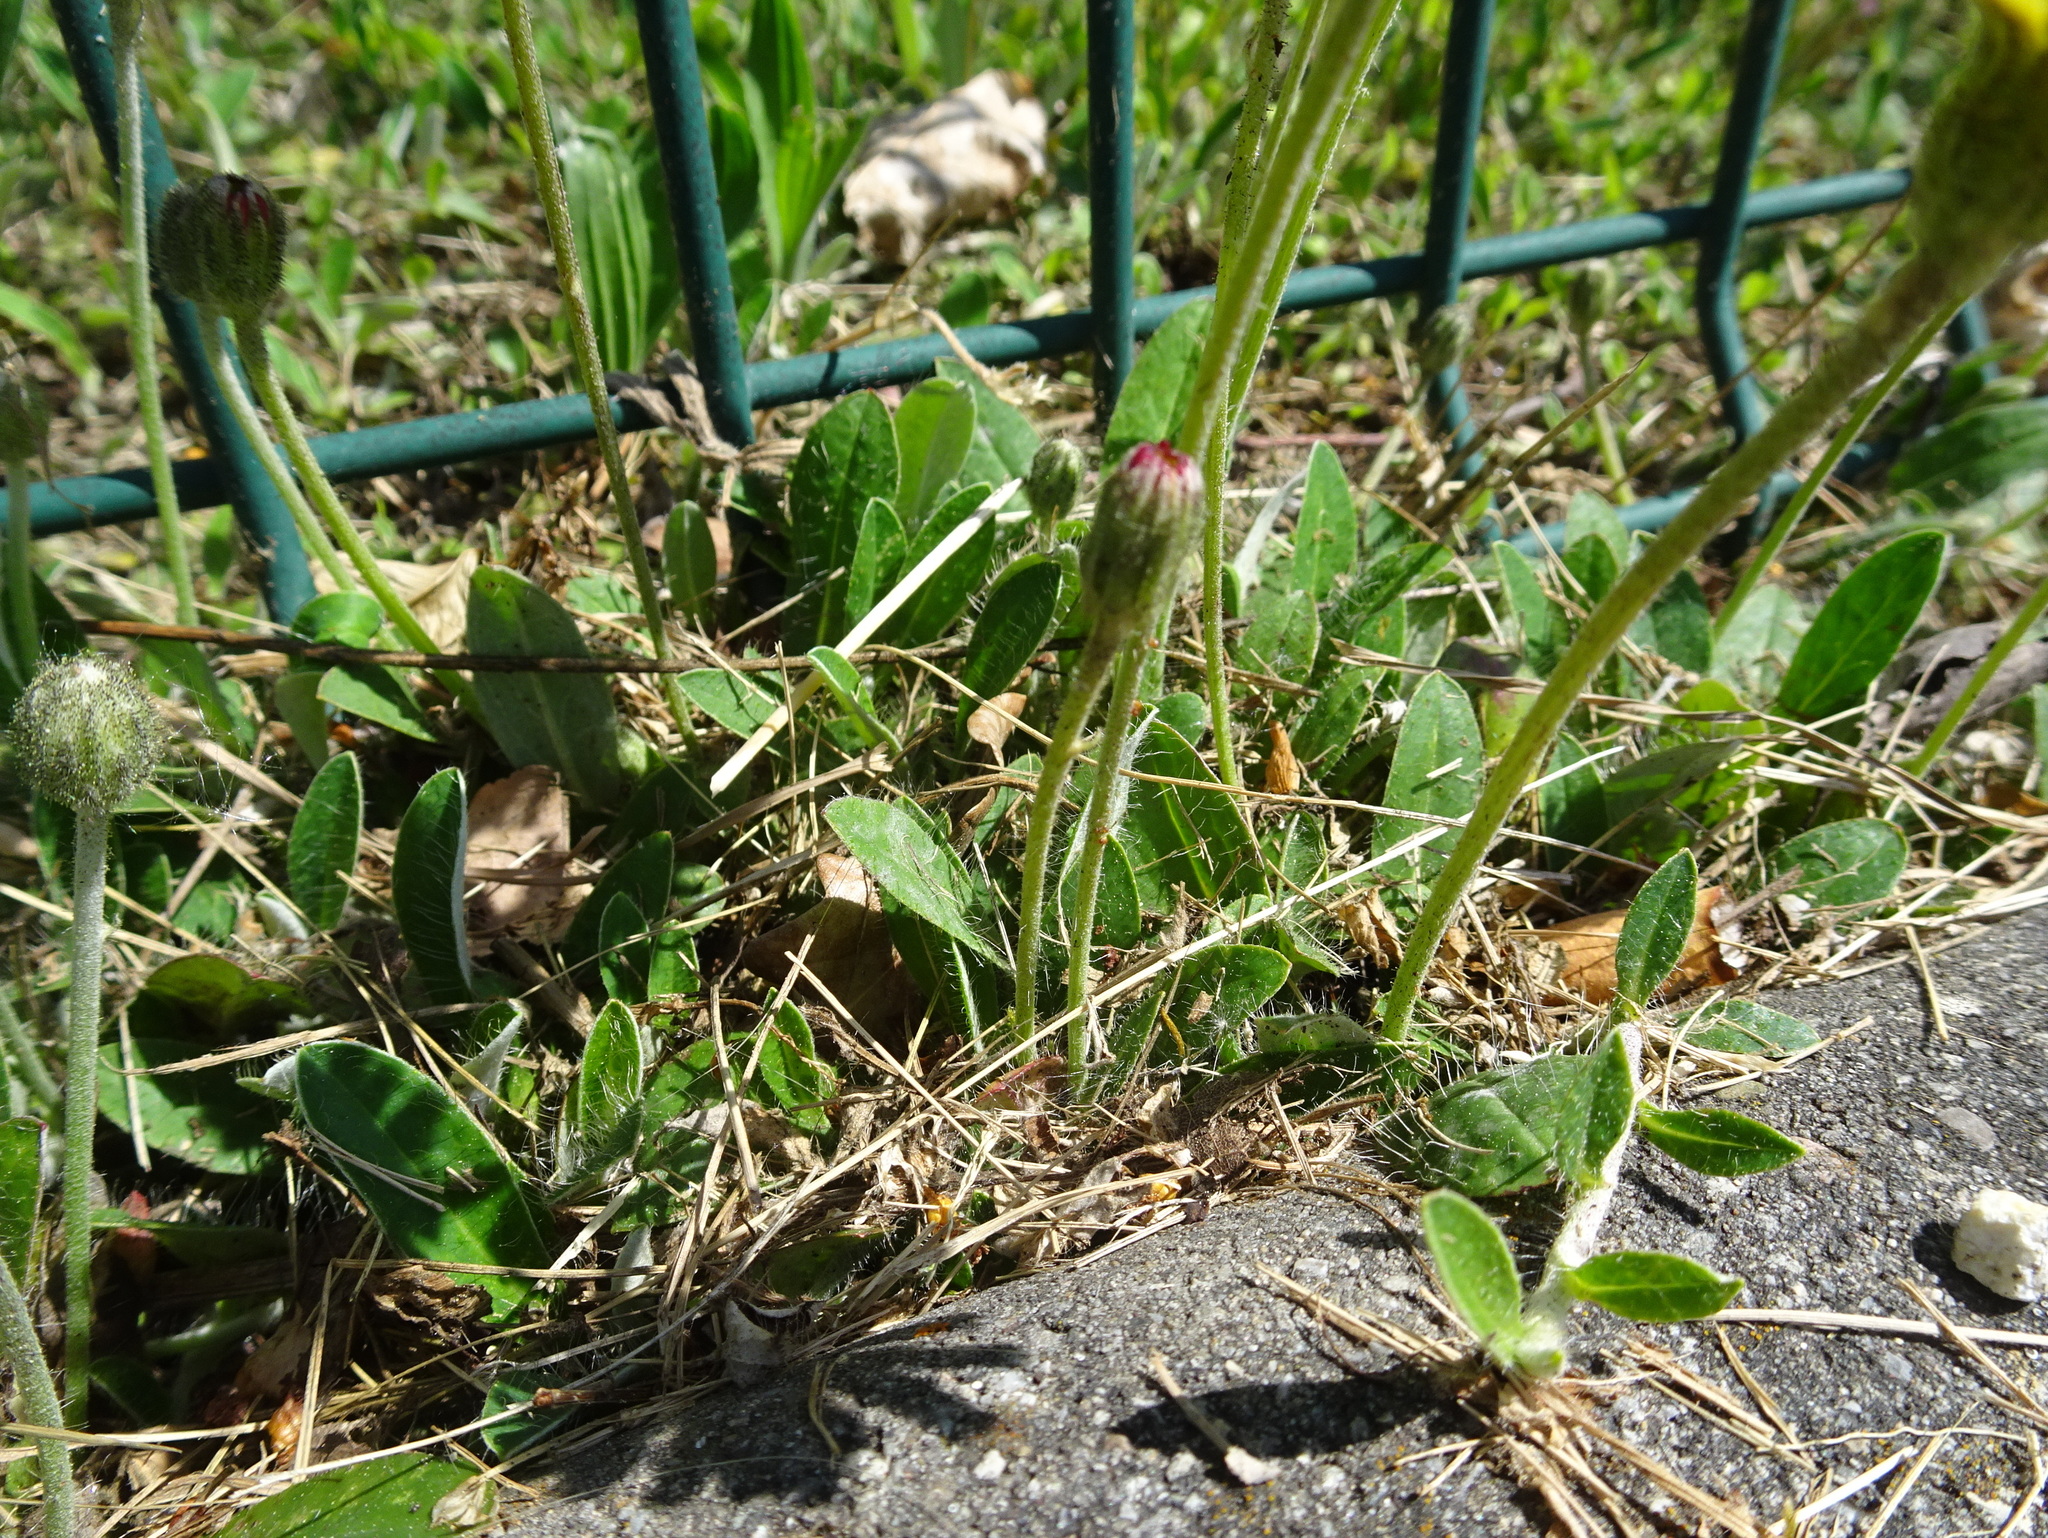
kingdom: Plantae
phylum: Tracheophyta
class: Magnoliopsida
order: Asterales
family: Asteraceae
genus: Pilosella
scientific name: Pilosella officinarum
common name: Mouse-ear hawkweed
